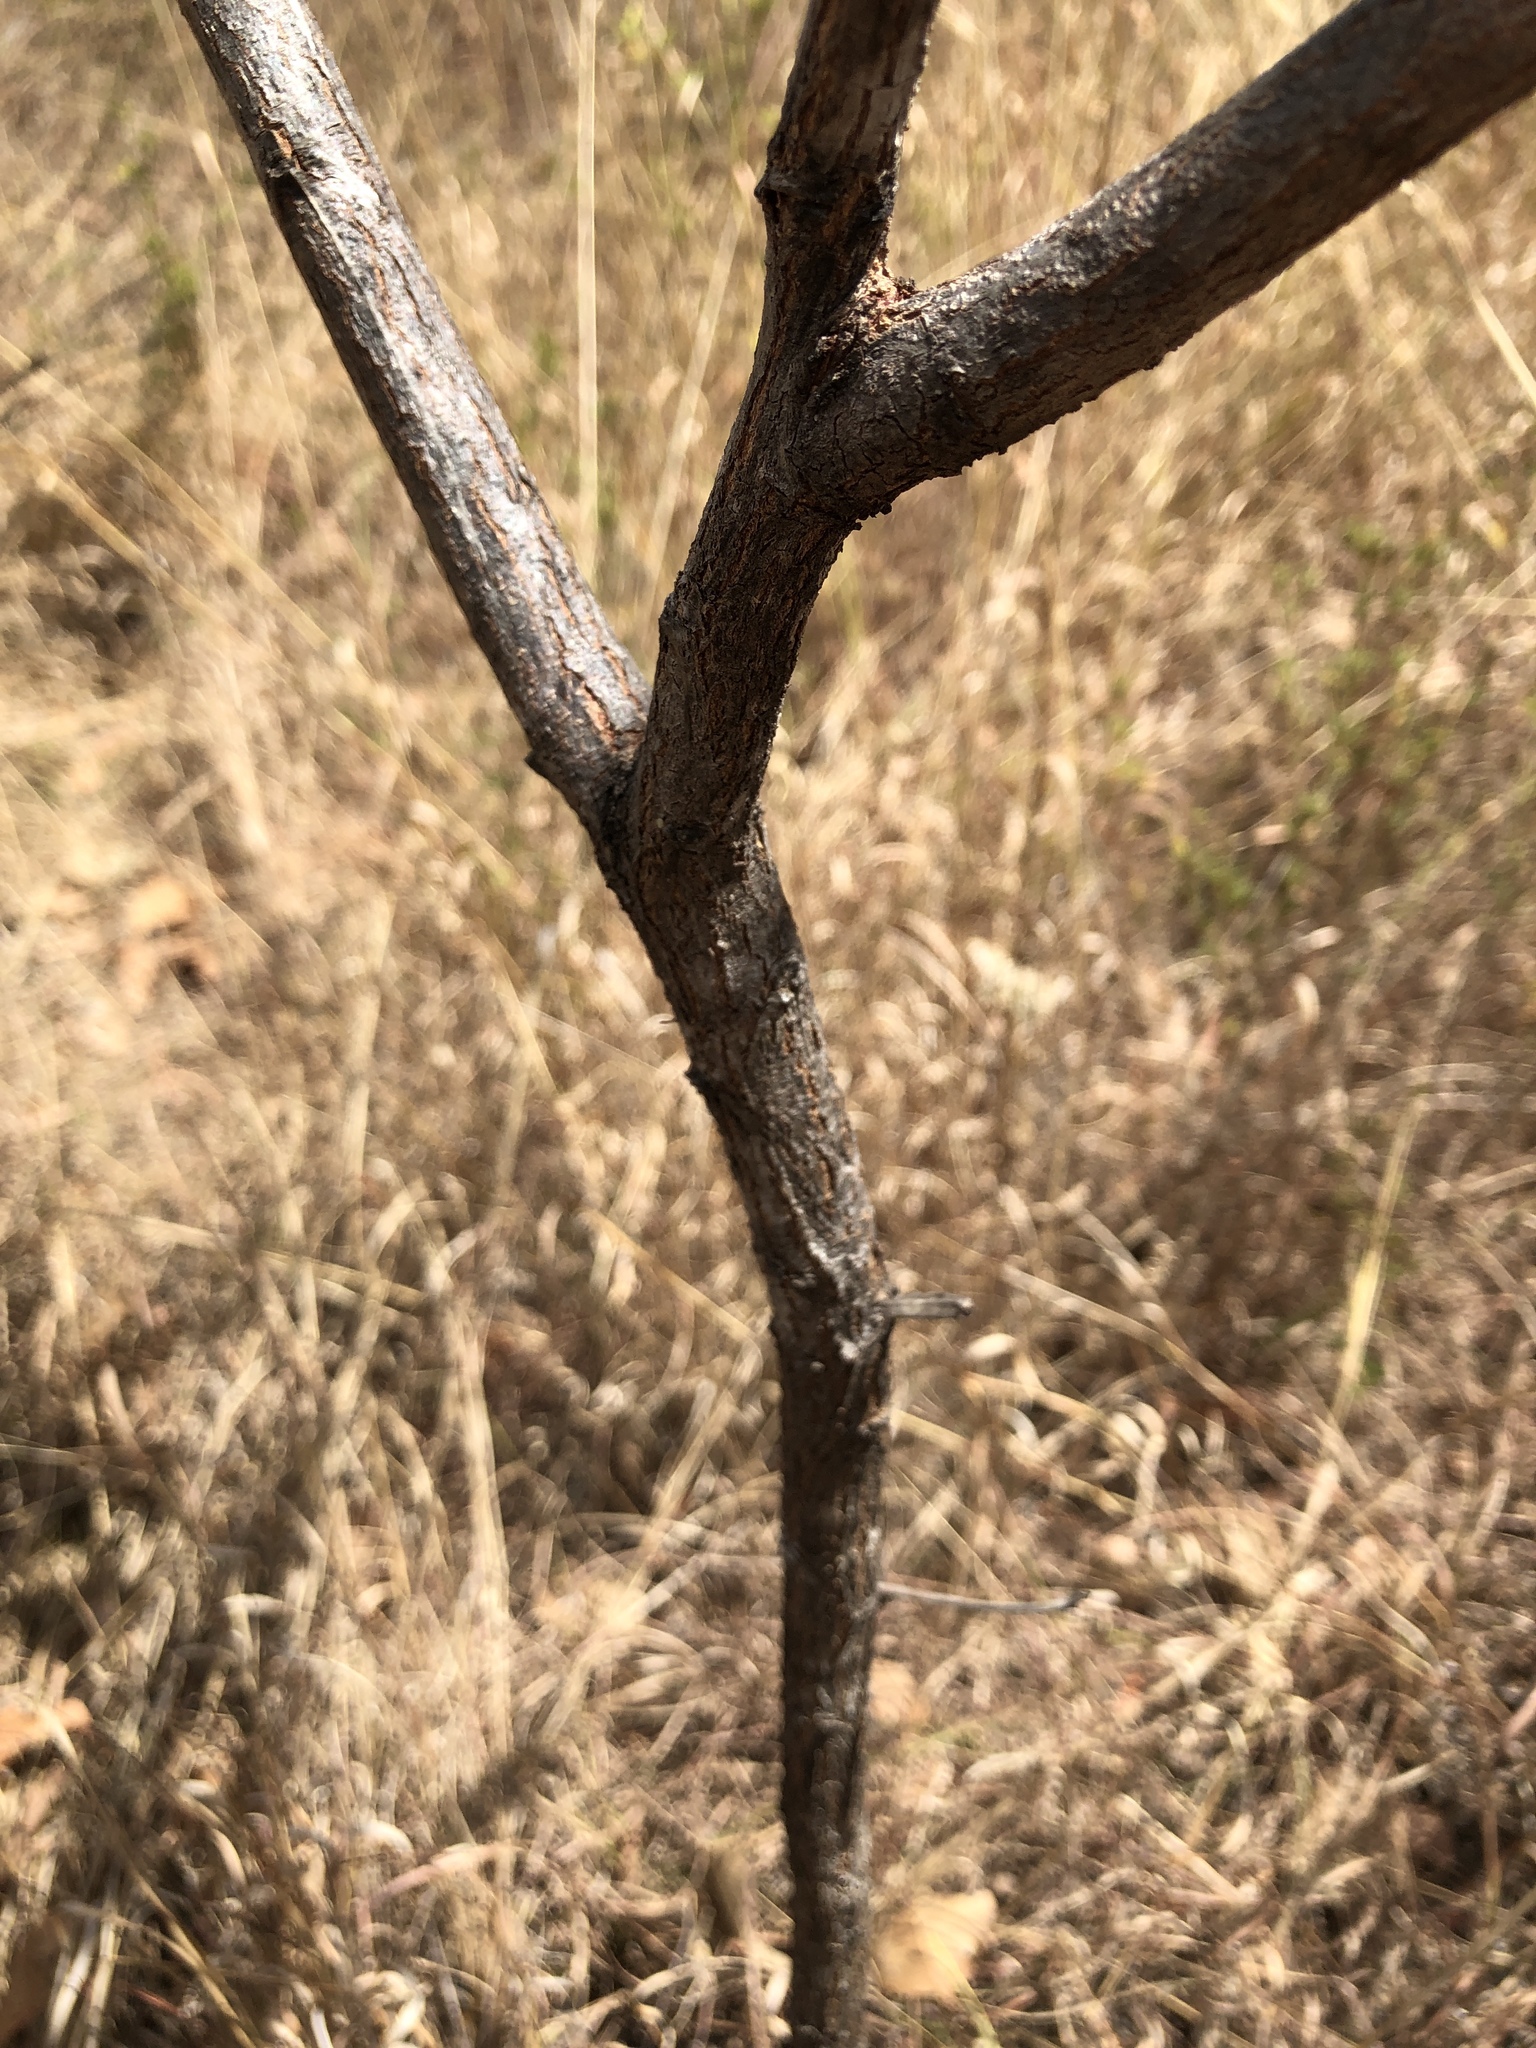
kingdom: Plantae
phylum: Tracheophyta
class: Magnoliopsida
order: Fabales
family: Fabaceae
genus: Acacia
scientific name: Acacia holosericea
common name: Candelabra wattle
